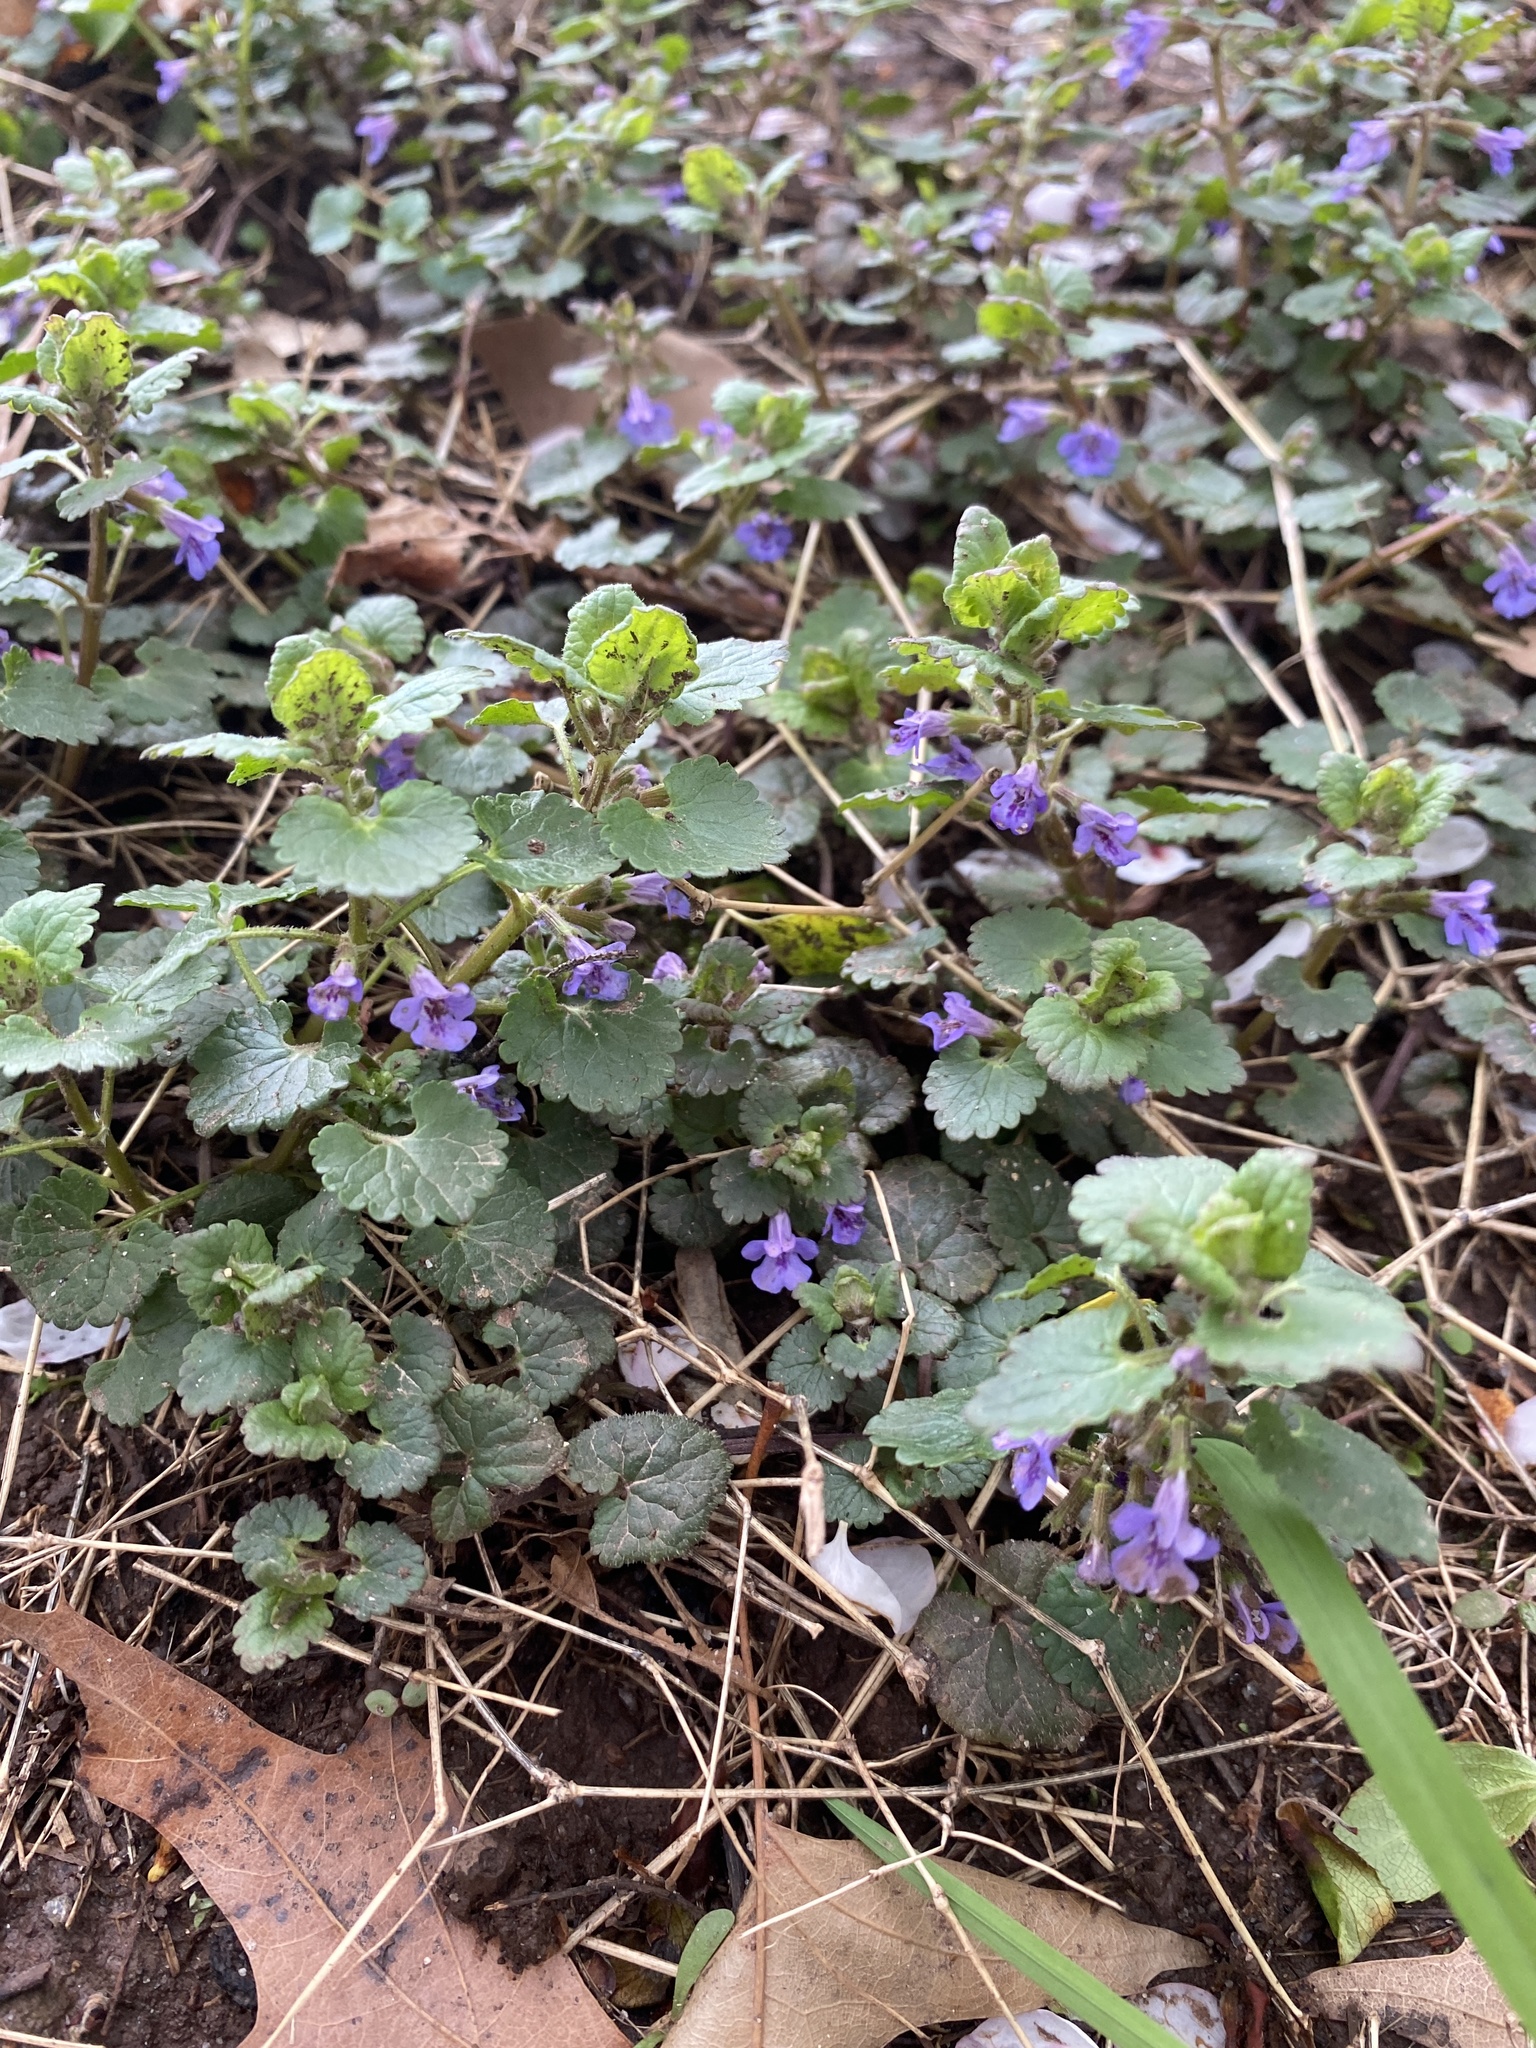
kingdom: Plantae
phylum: Tracheophyta
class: Magnoliopsida
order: Lamiales
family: Lamiaceae
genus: Glechoma
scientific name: Glechoma hederacea
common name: Ground ivy
